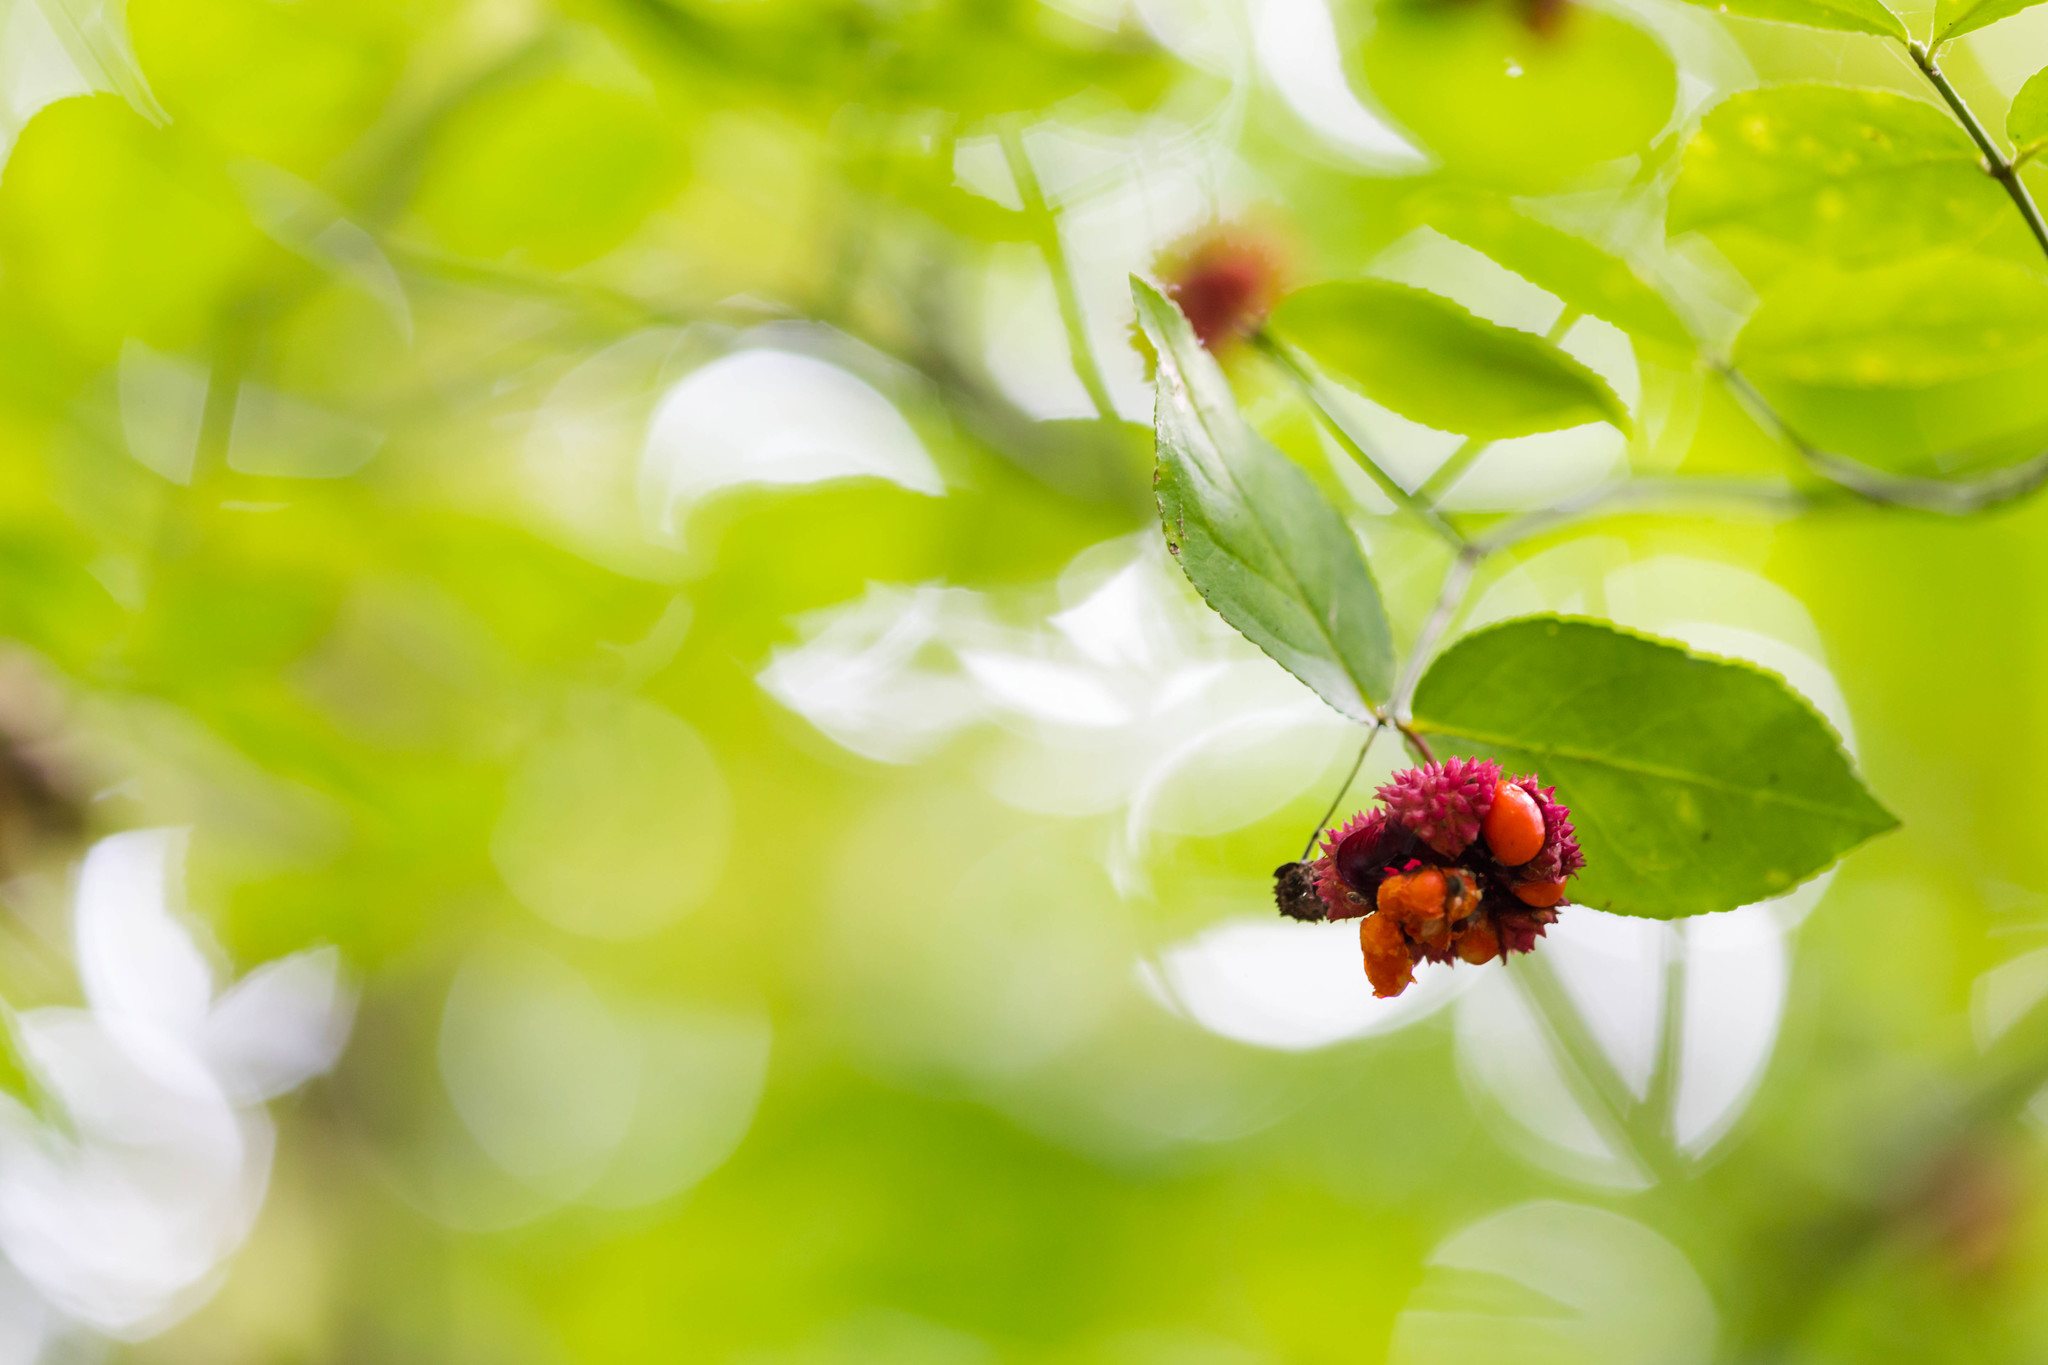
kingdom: Plantae
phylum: Tracheophyta
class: Magnoliopsida
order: Celastrales
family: Celastraceae
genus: Euonymus
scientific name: Euonymus americanus
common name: Bursting-heart
